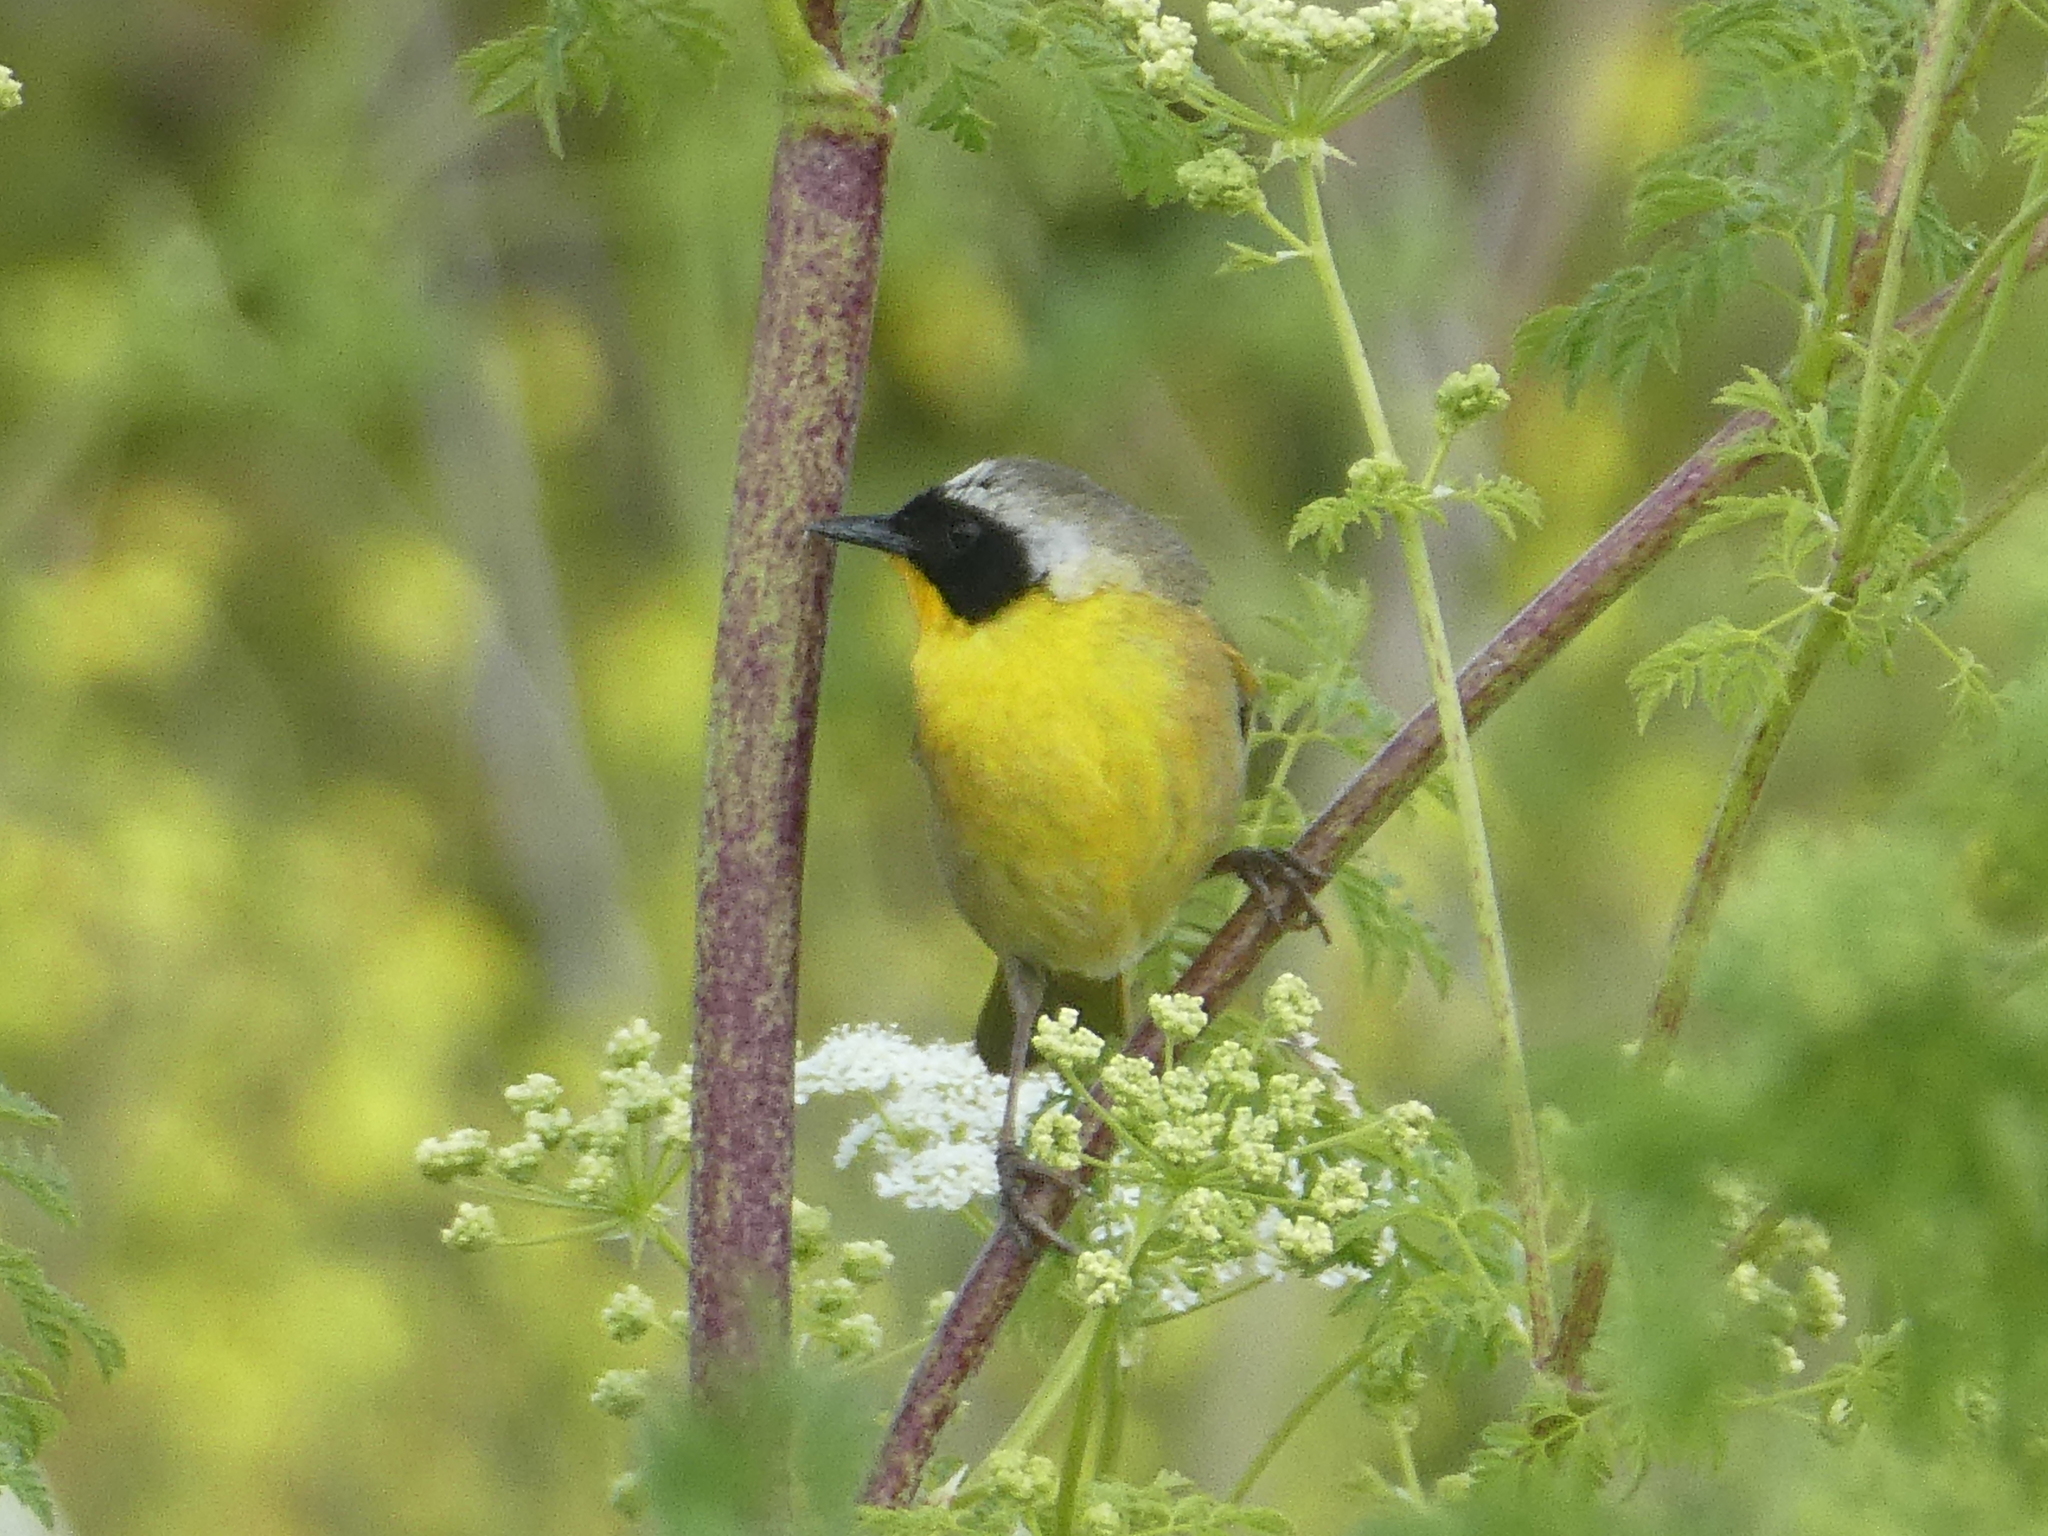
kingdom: Animalia
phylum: Chordata
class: Aves
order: Passeriformes
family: Parulidae
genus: Geothlypis
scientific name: Geothlypis trichas
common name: Common yellowthroat
